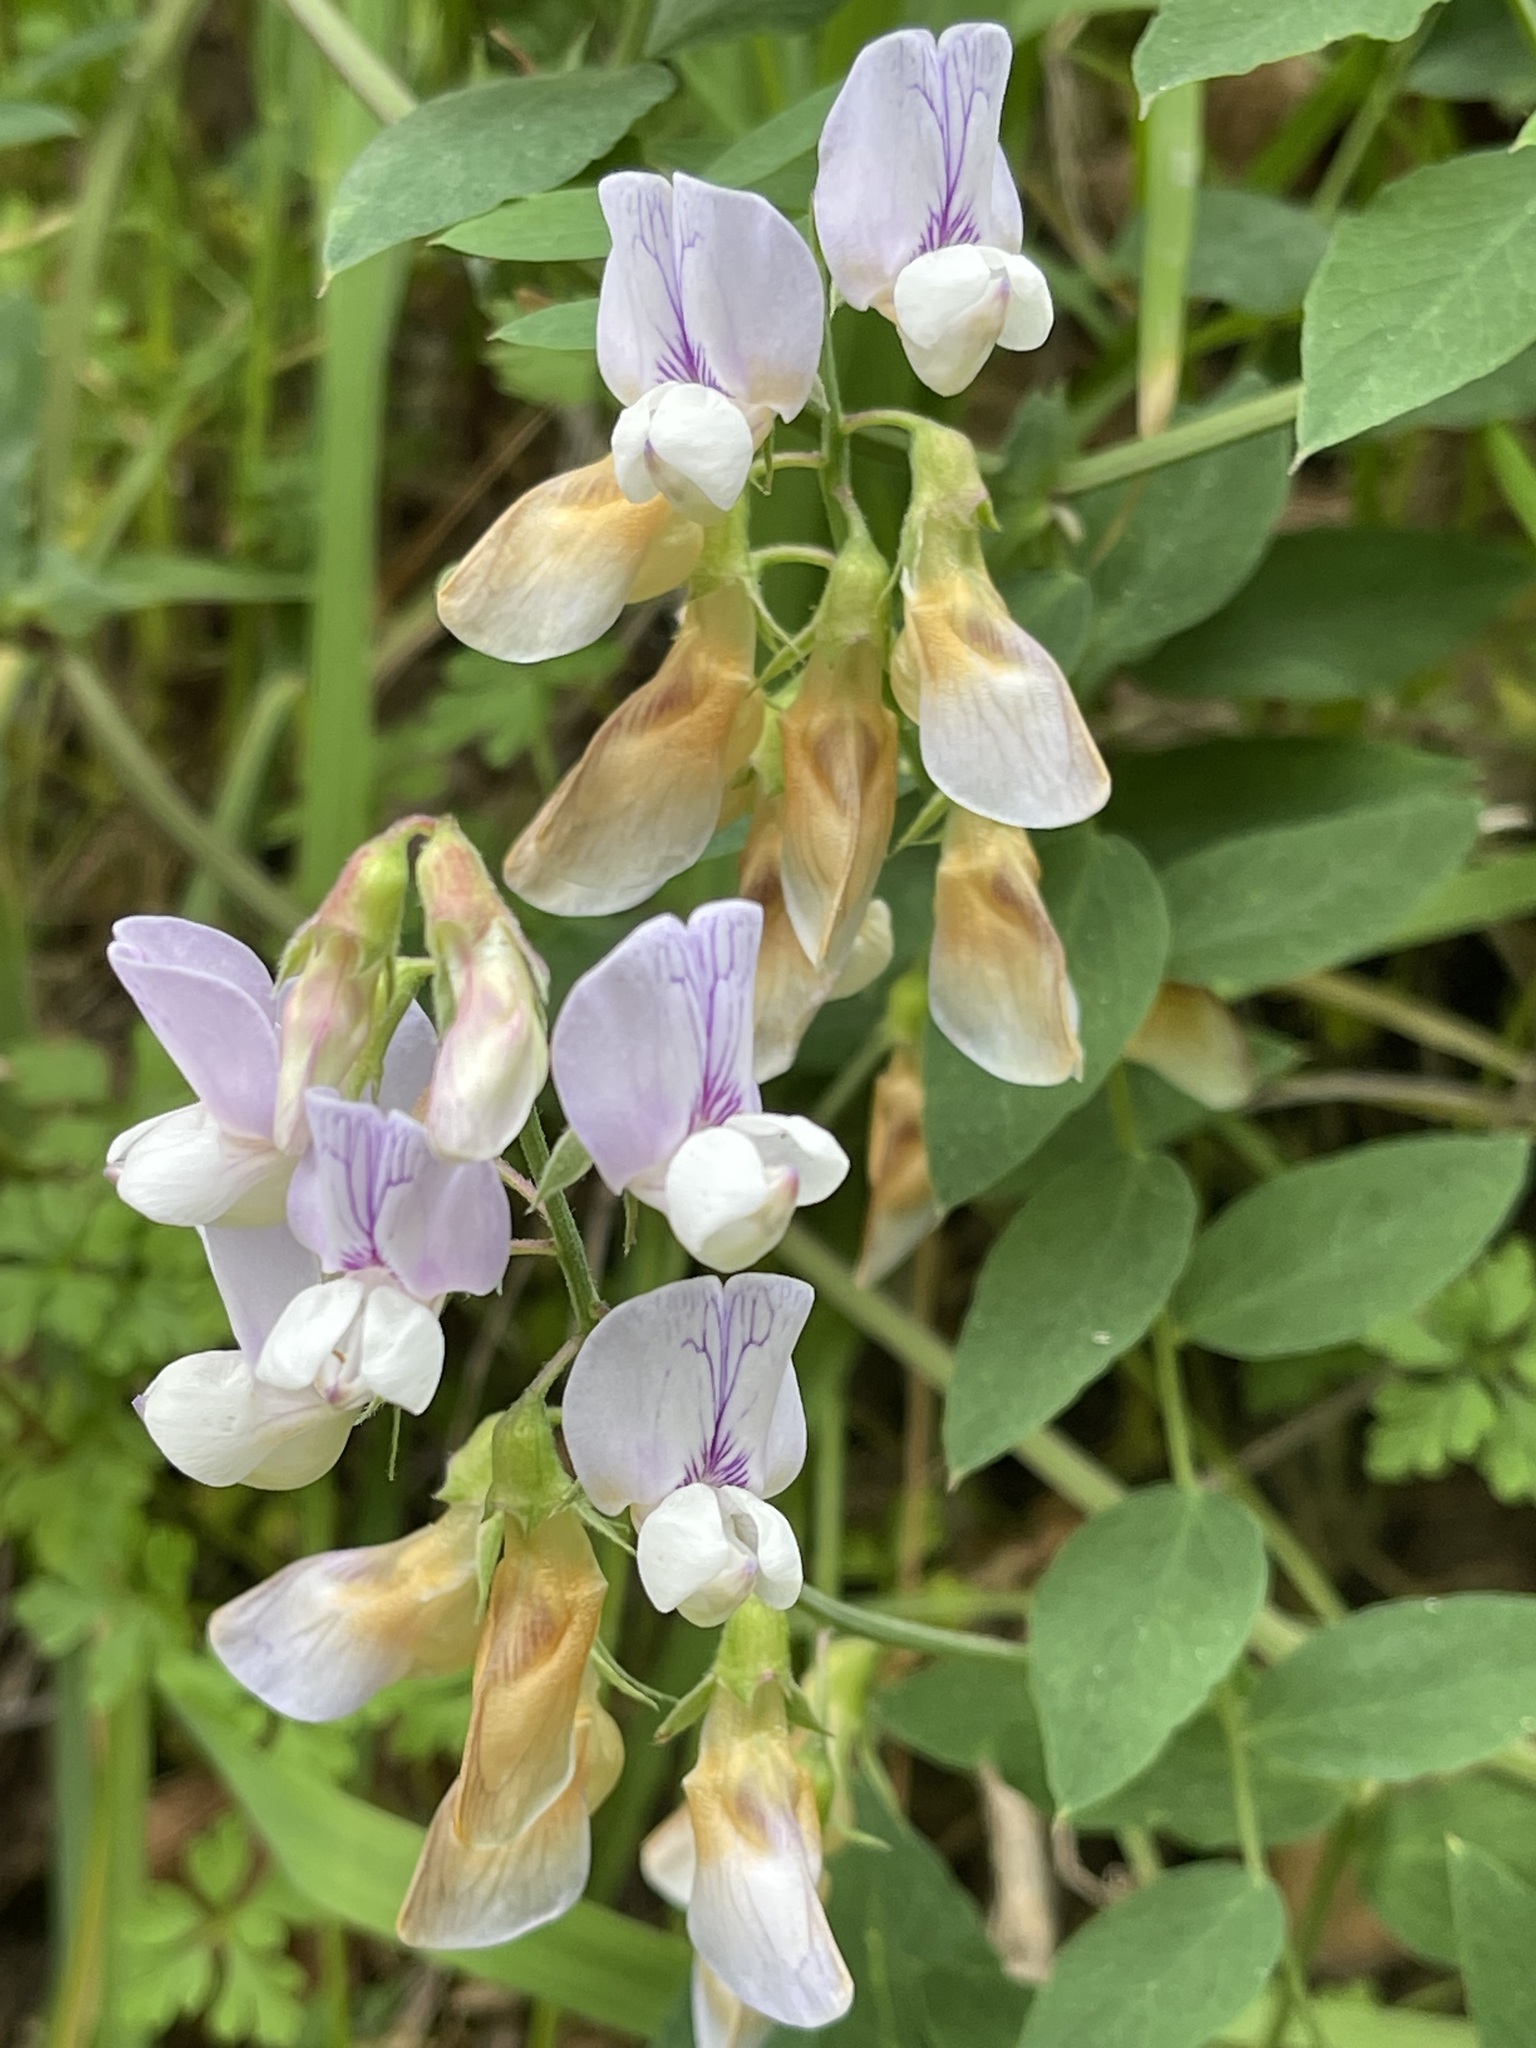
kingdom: Plantae
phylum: Tracheophyta
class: Magnoliopsida
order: Fabales
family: Fabaceae
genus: Lathyrus
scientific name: Lathyrus vestitus
